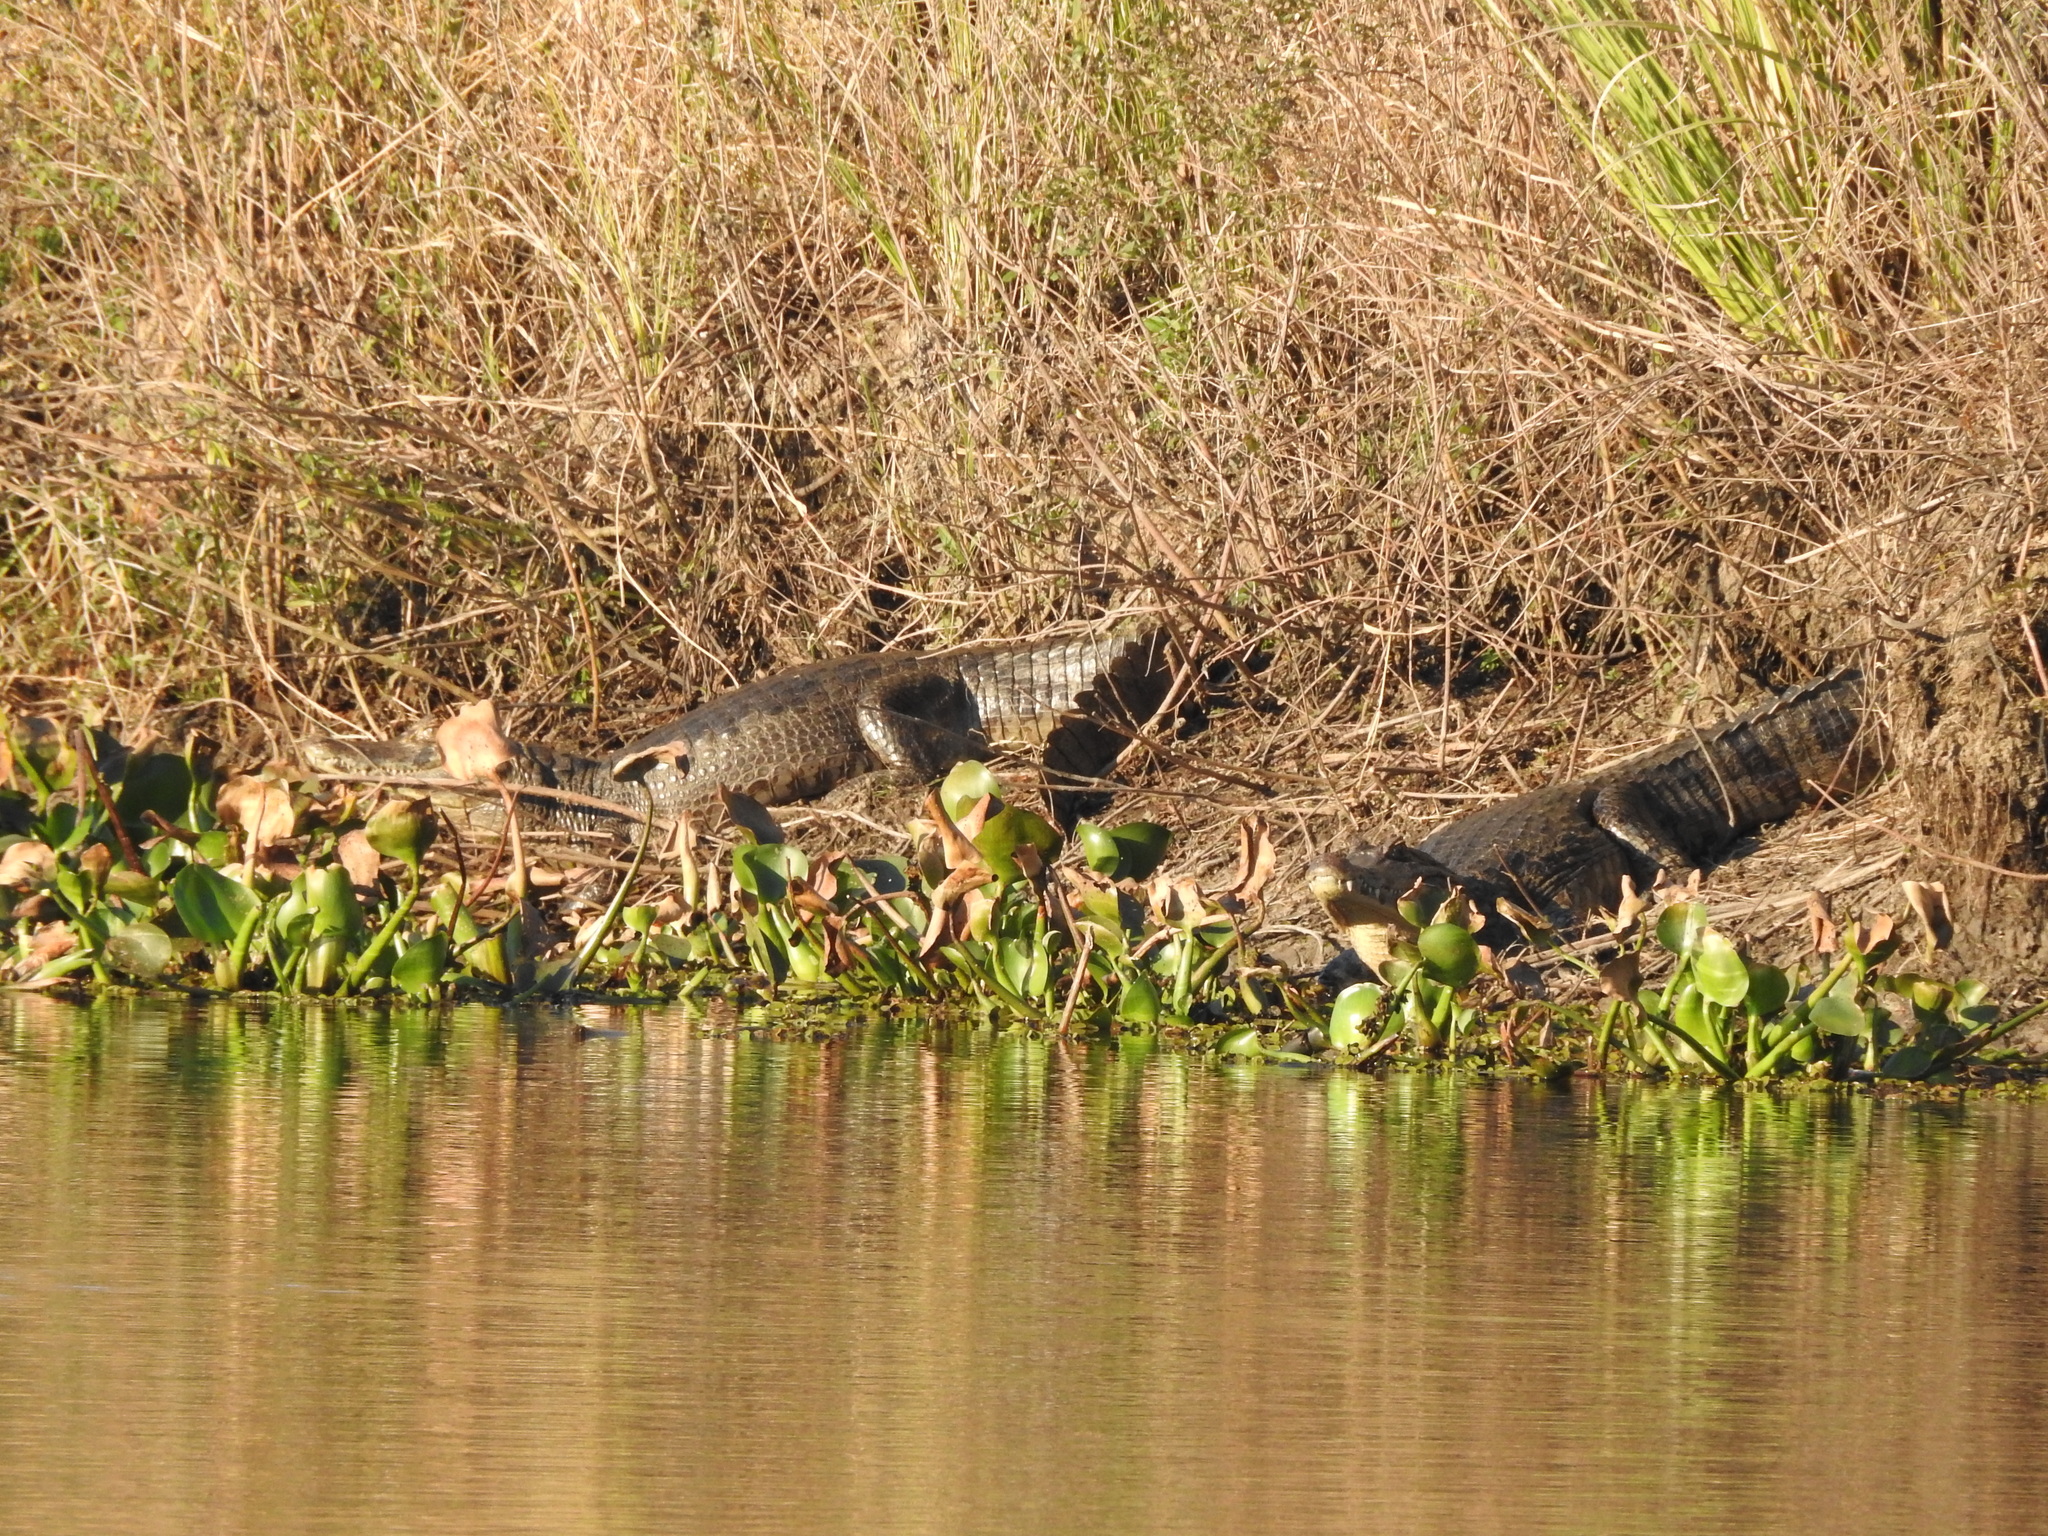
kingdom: Animalia
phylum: Chordata
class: Crocodylia
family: Alligatoridae
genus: Caiman
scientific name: Caiman yacare
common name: Yacare caiman
